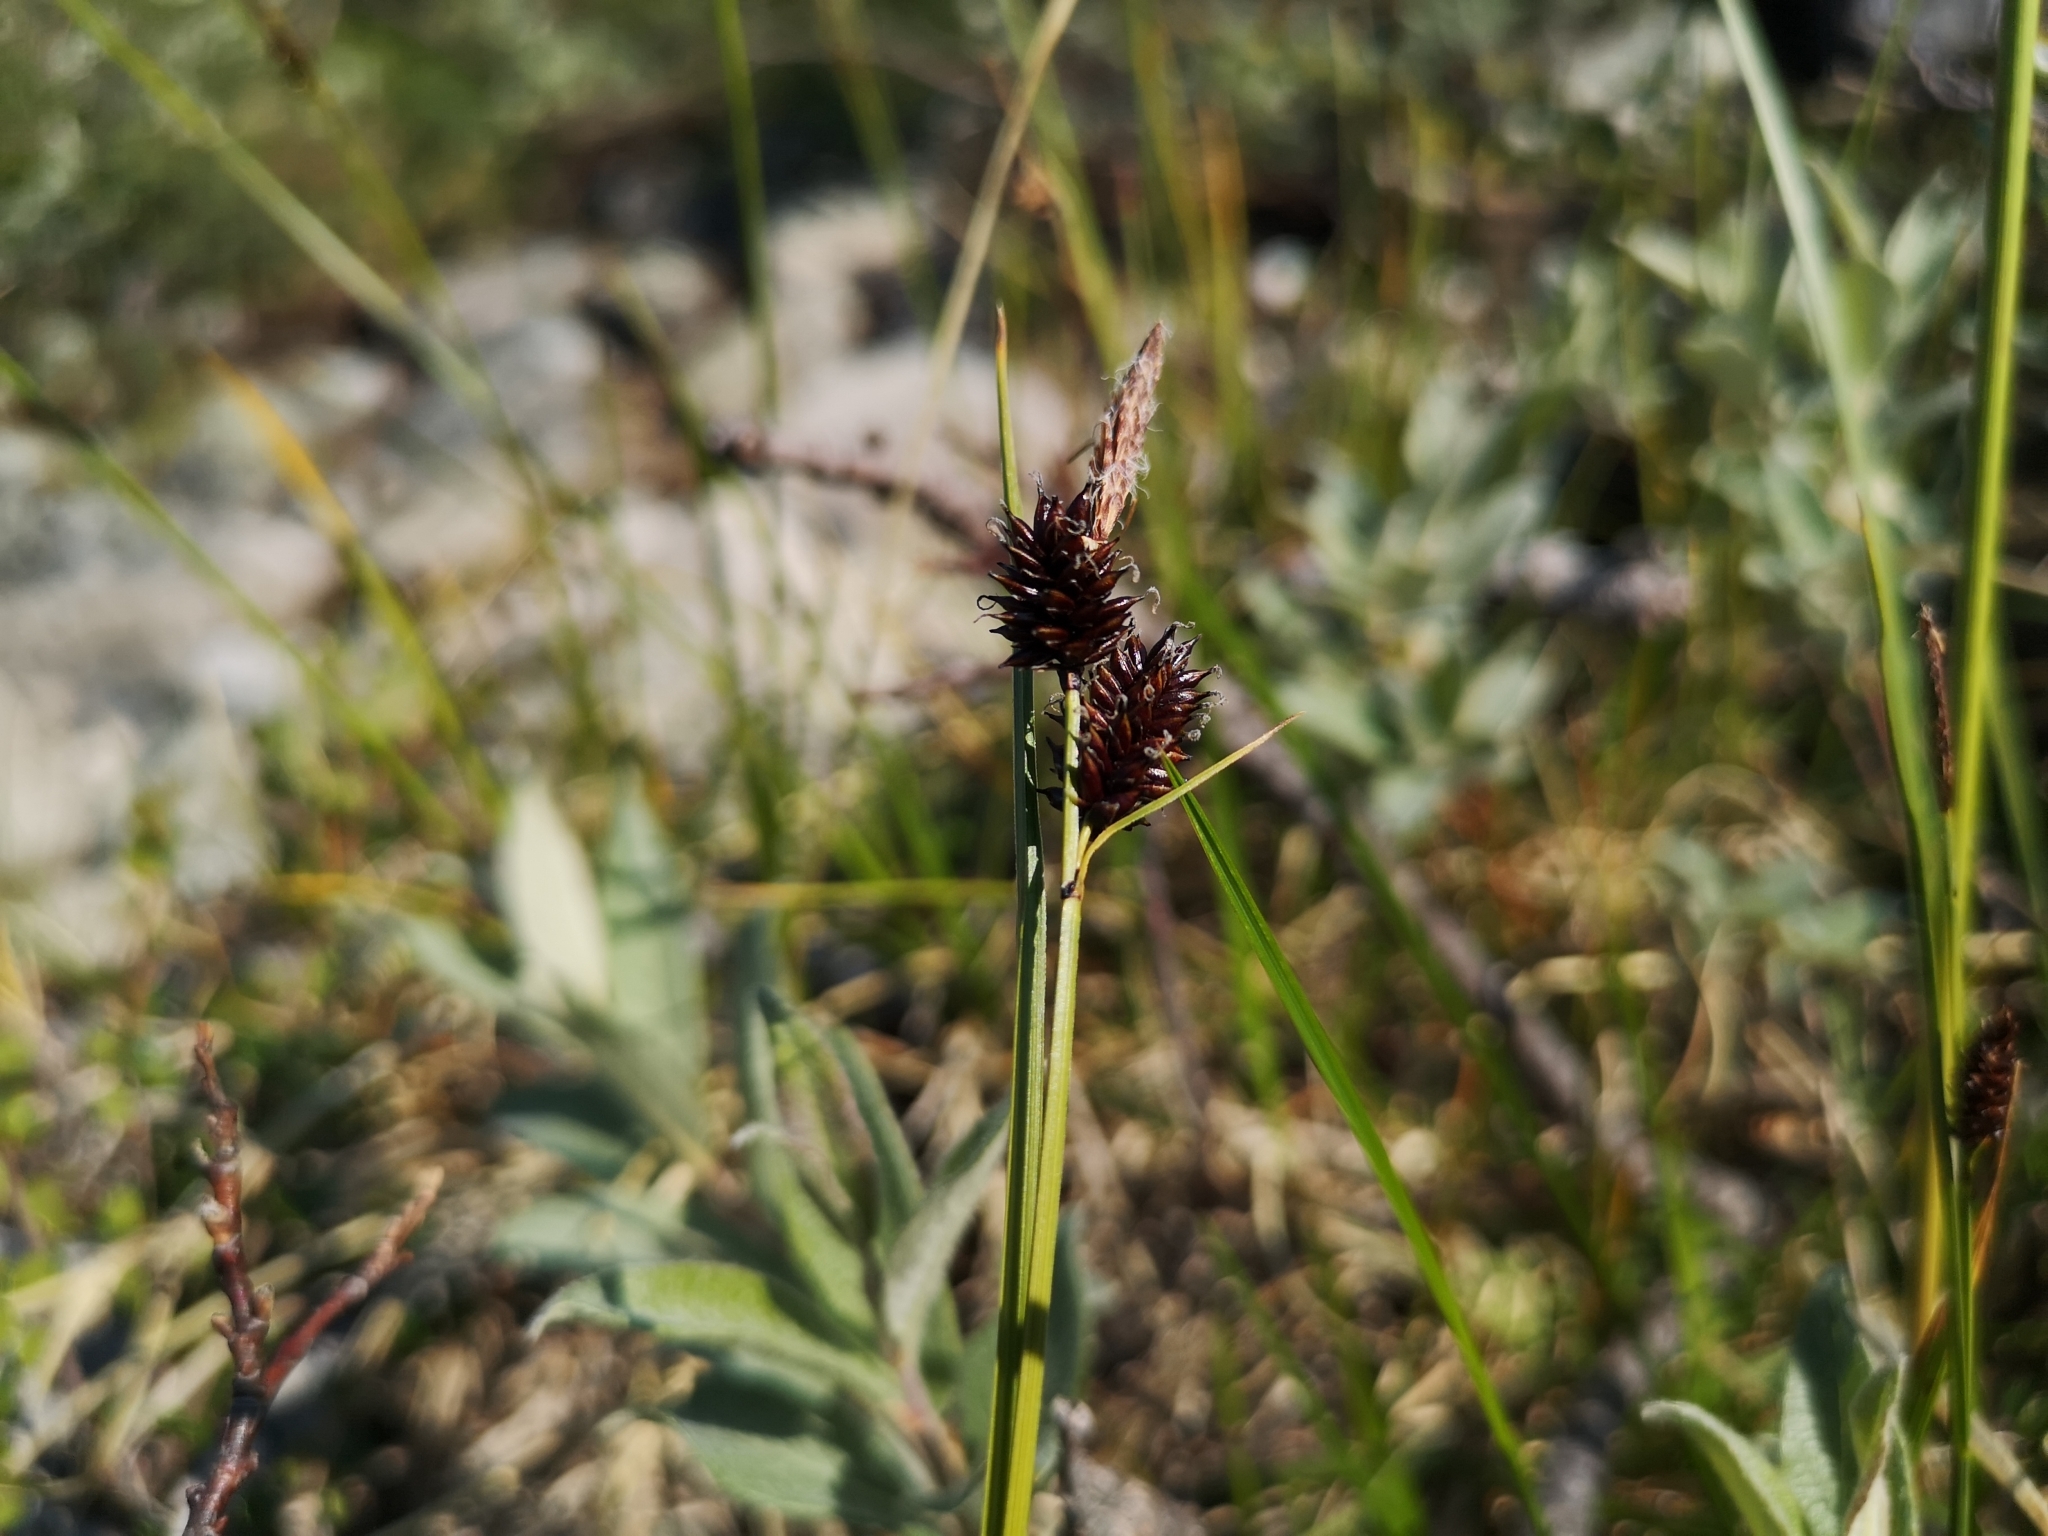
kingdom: Plantae
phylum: Tracheophyta
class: Liliopsida
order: Poales
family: Cyperaceae
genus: Carex
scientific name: Carex saxatilis
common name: Russet sedge
